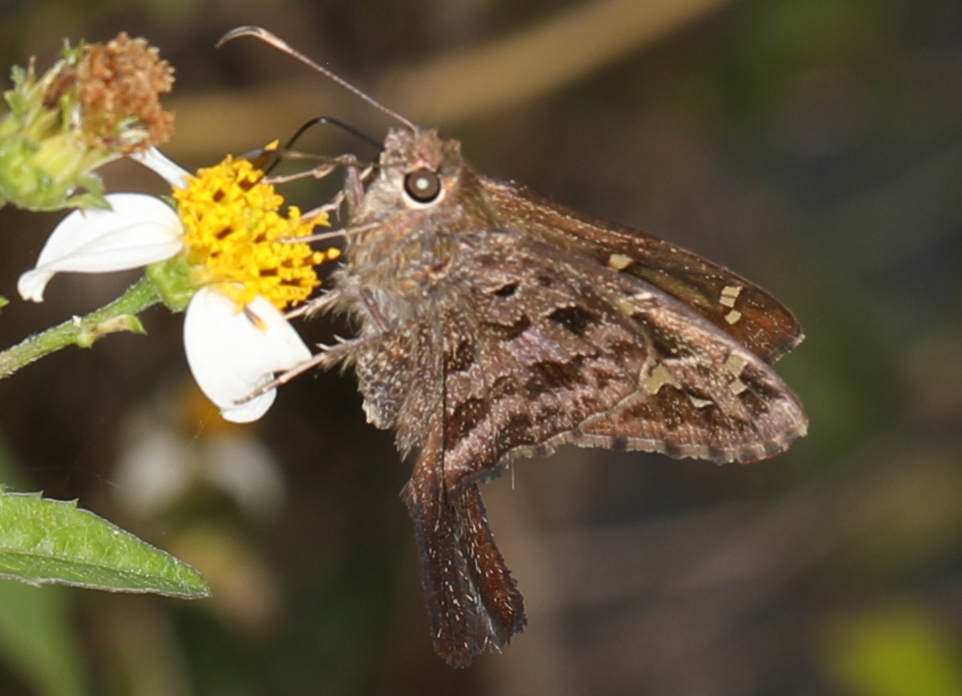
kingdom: Animalia
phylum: Arthropoda
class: Insecta
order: Lepidoptera
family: Hesperiidae
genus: Thorybes
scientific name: Thorybes
